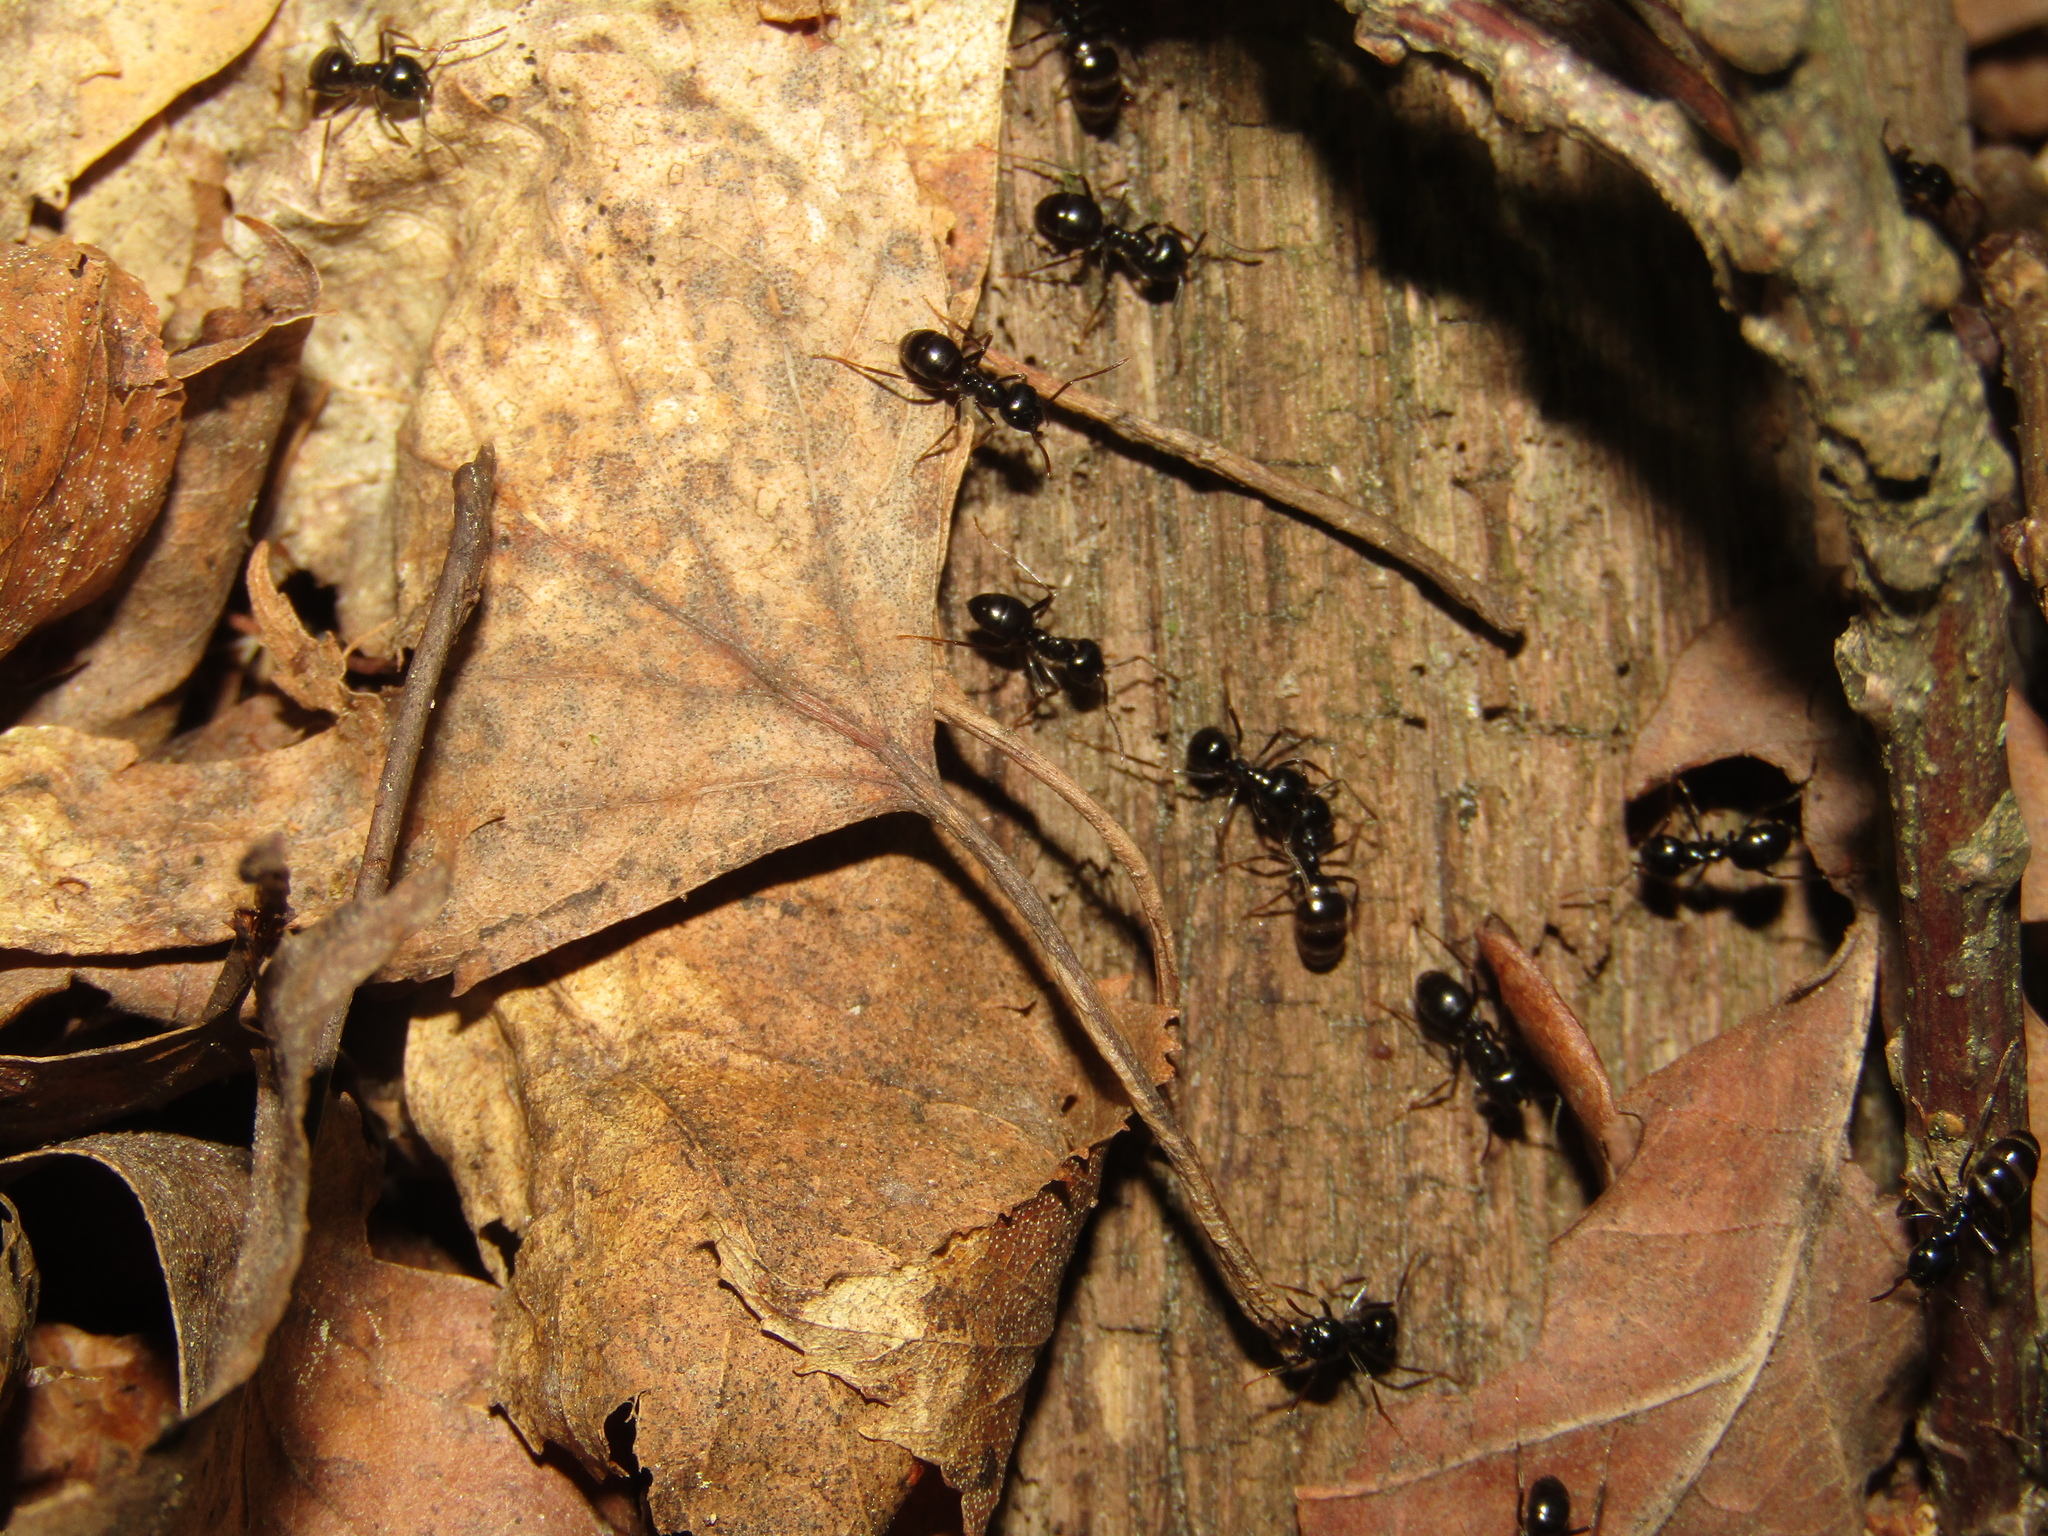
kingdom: Animalia
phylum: Arthropoda
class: Insecta
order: Hymenoptera
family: Formicidae
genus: Lasius
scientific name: Lasius fuliginosus
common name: Jet ant
